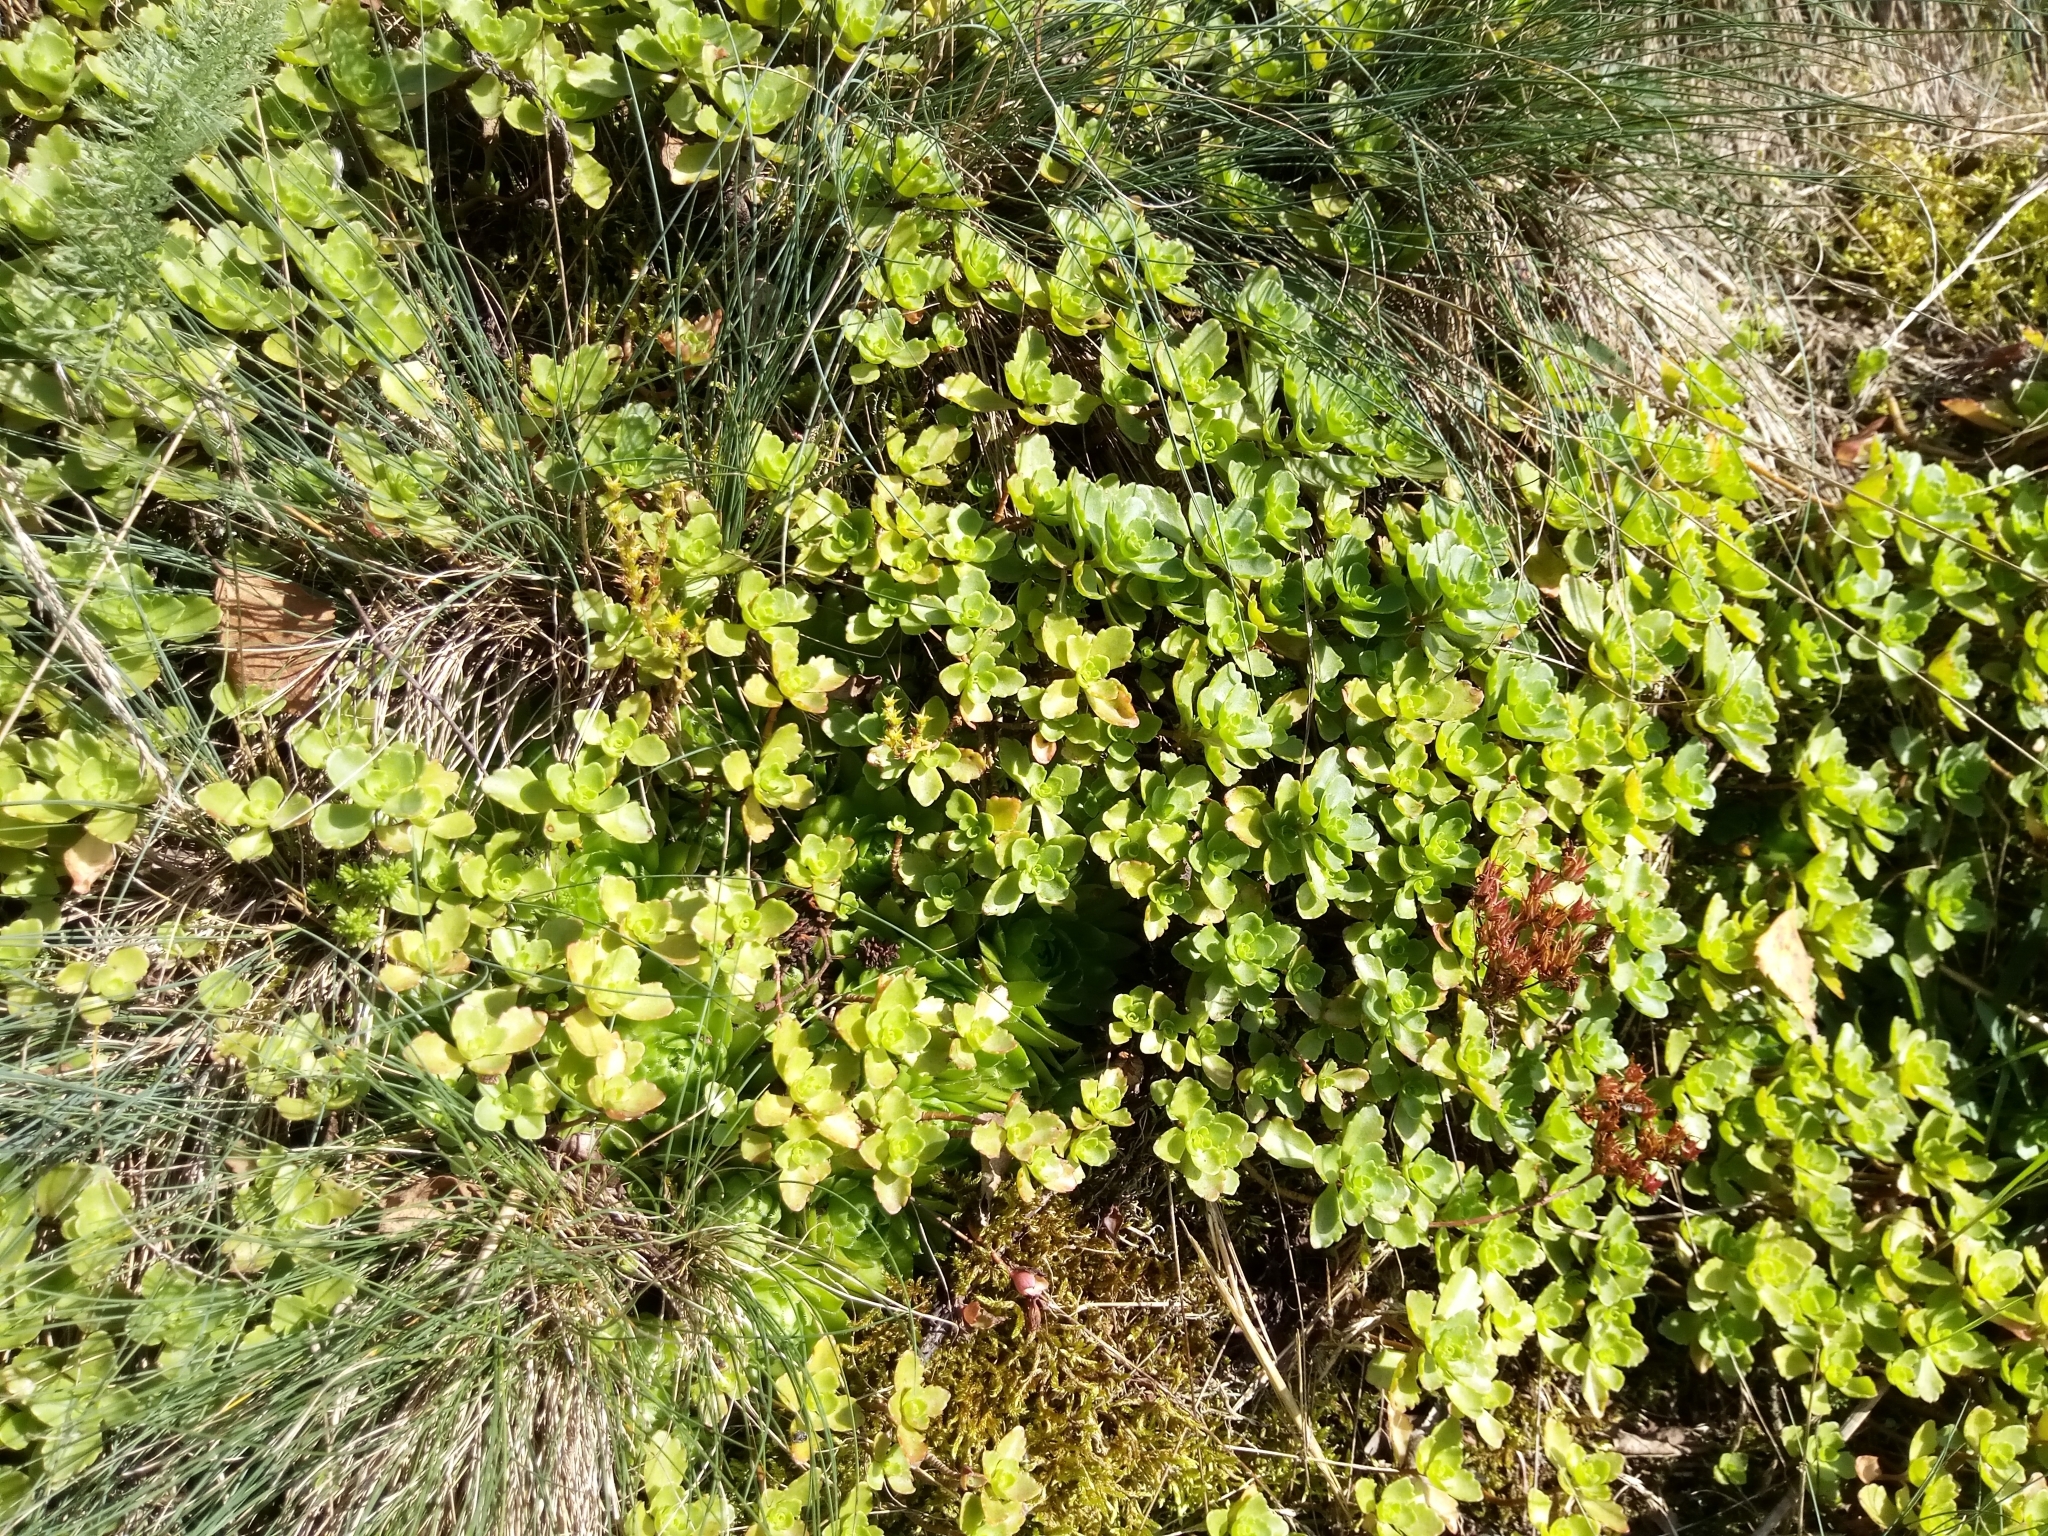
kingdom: Plantae
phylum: Tracheophyta
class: Magnoliopsida
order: Saxifragales
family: Crassulaceae
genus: Phedimus
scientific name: Phedimus spurius
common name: Caucasian stonecrop
